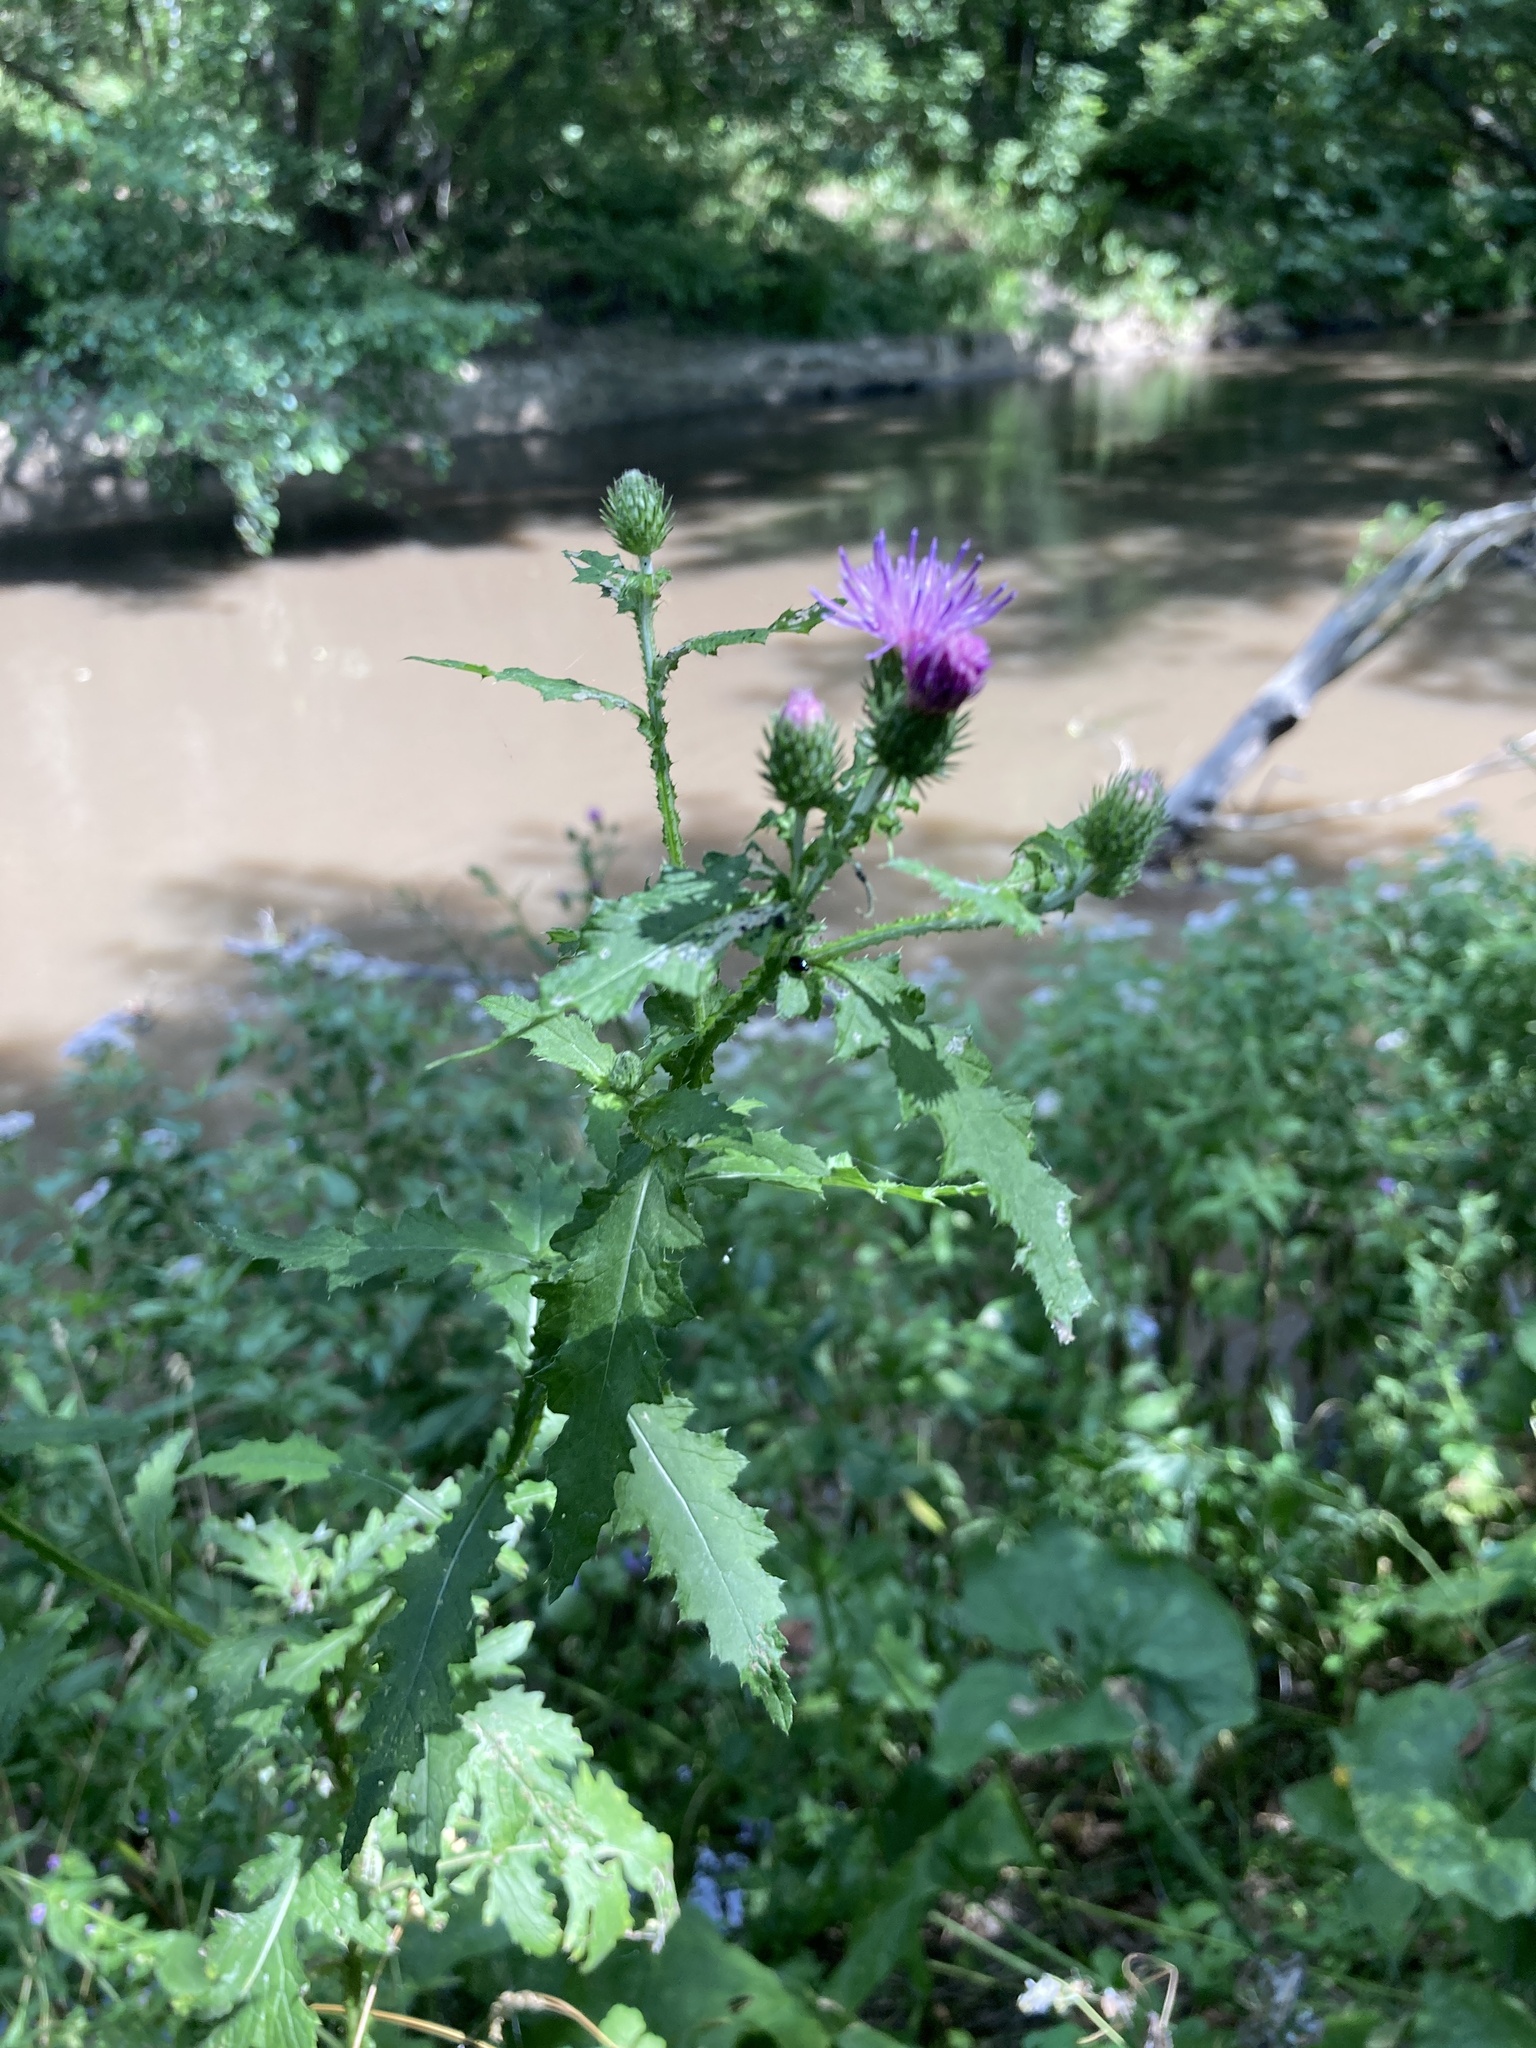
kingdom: Plantae
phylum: Tracheophyta
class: Magnoliopsida
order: Asterales
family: Asteraceae
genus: Carduus
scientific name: Carduus crispus
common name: Welted thistle
